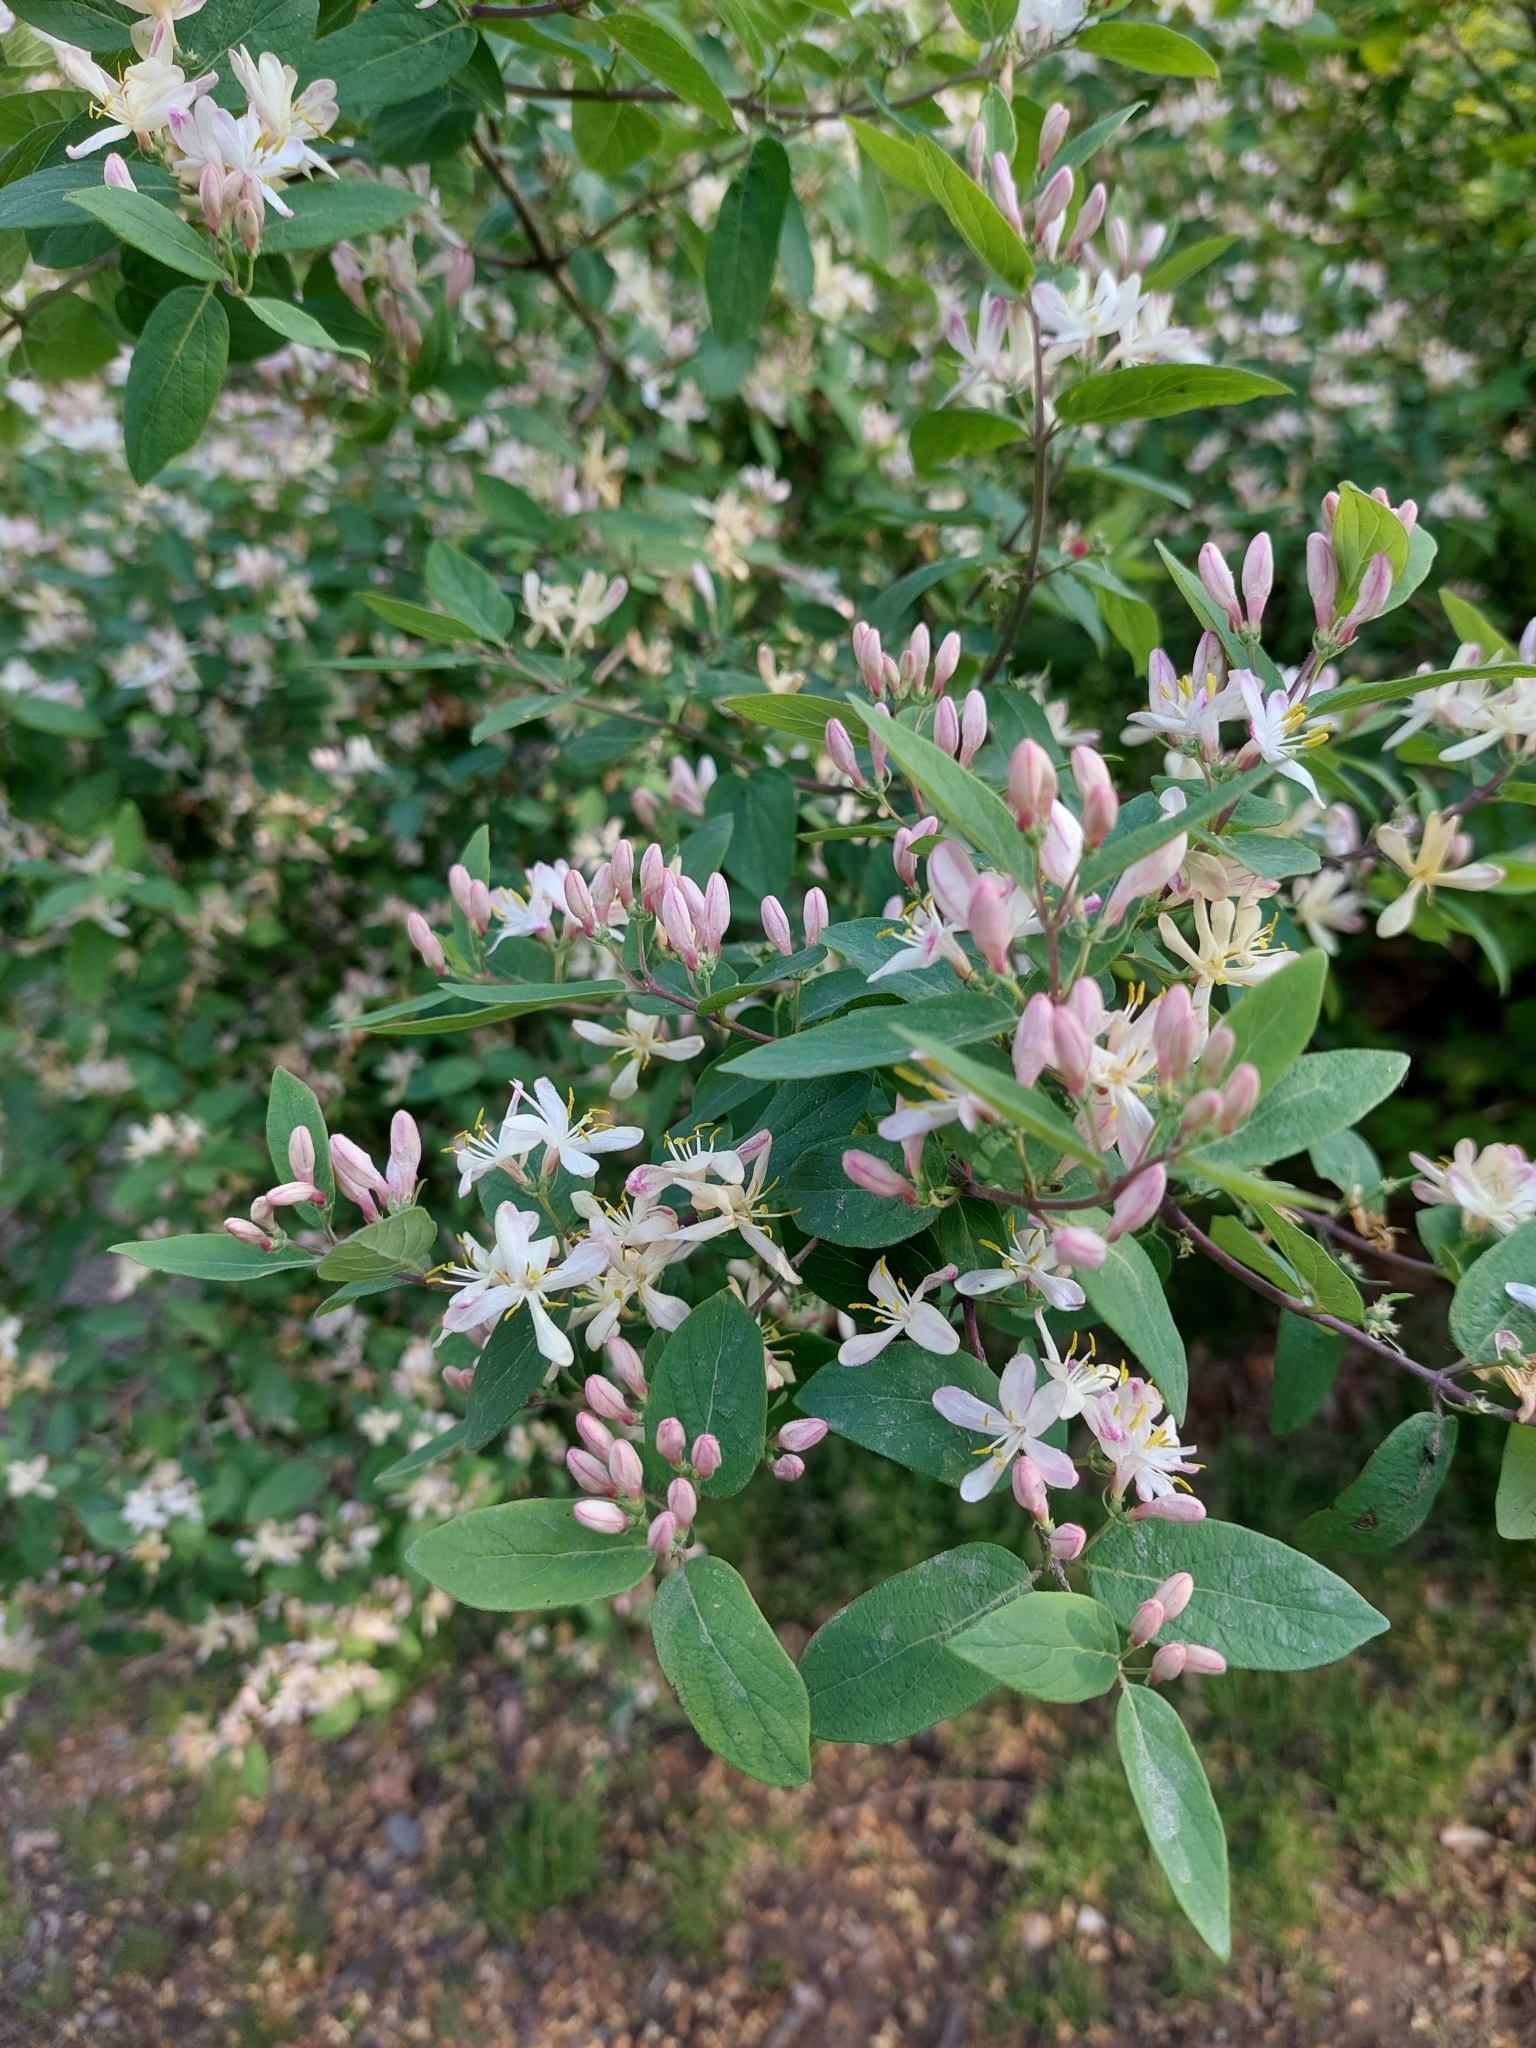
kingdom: Plantae
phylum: Tracheophyta
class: Magnoliopsida
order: Dipsacales
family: Caprifoliaceae
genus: Lonicera
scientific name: Lonicera tatarica
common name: Tatarian honeysuckle
